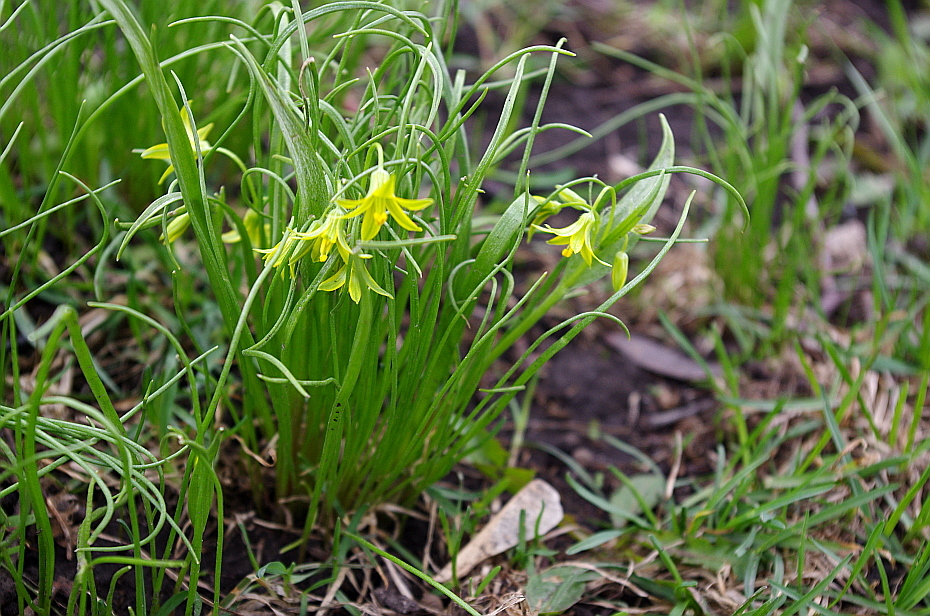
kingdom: Plantae
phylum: Tracheophyta
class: Liliopsida
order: Liliales
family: Liliaceae
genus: Gagea
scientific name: Gagea minima
